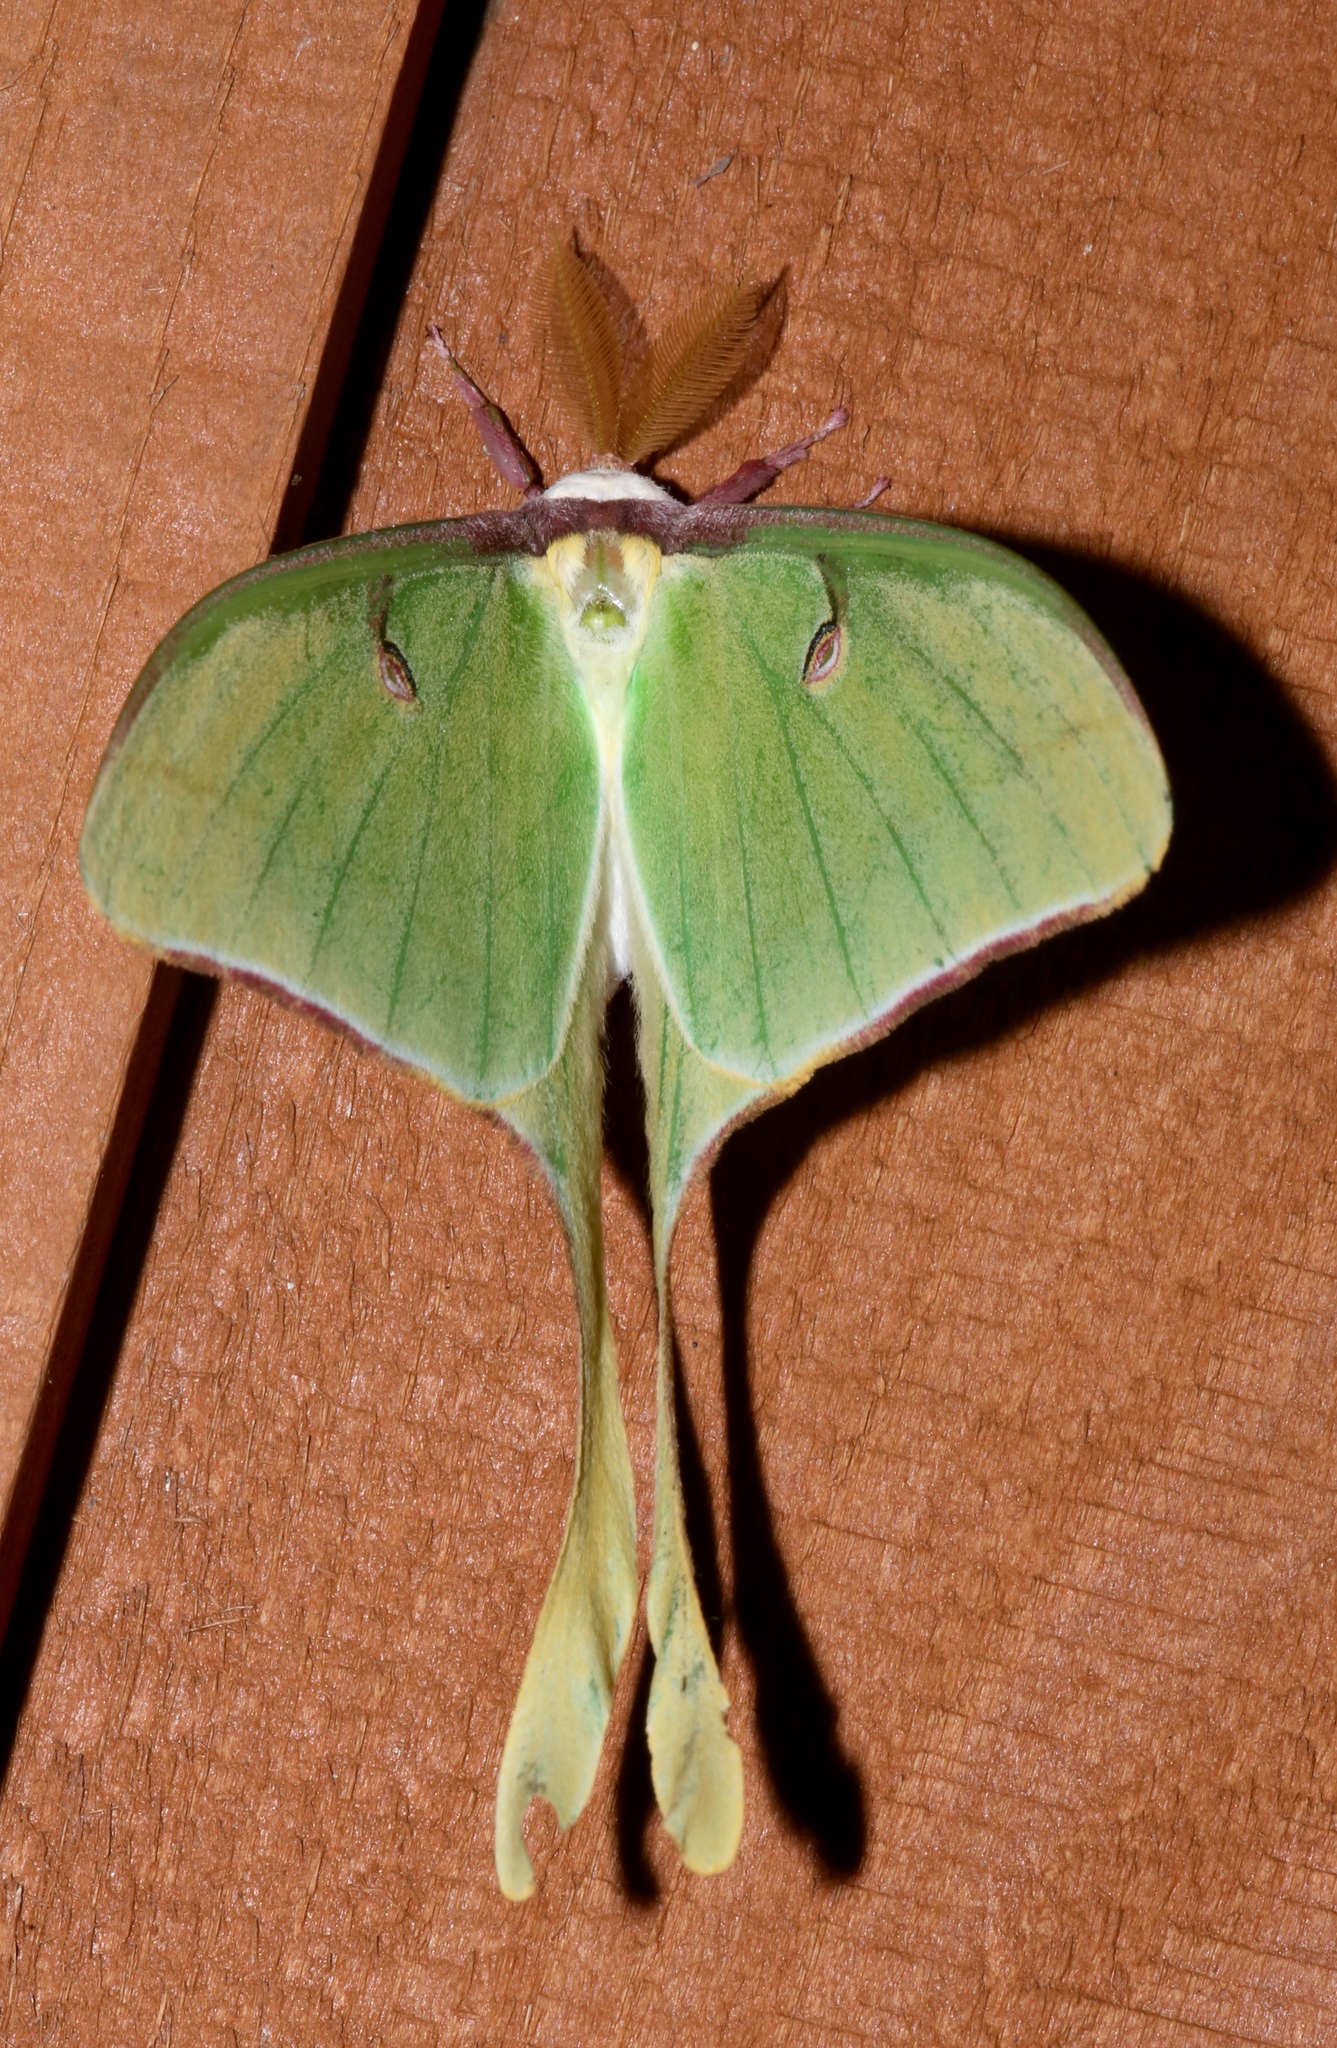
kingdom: Animalia
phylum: Arthropoda
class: Insecta
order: Lepidoptera
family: Saturniidae
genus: Actias
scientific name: Actias luna
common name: Luna moth
